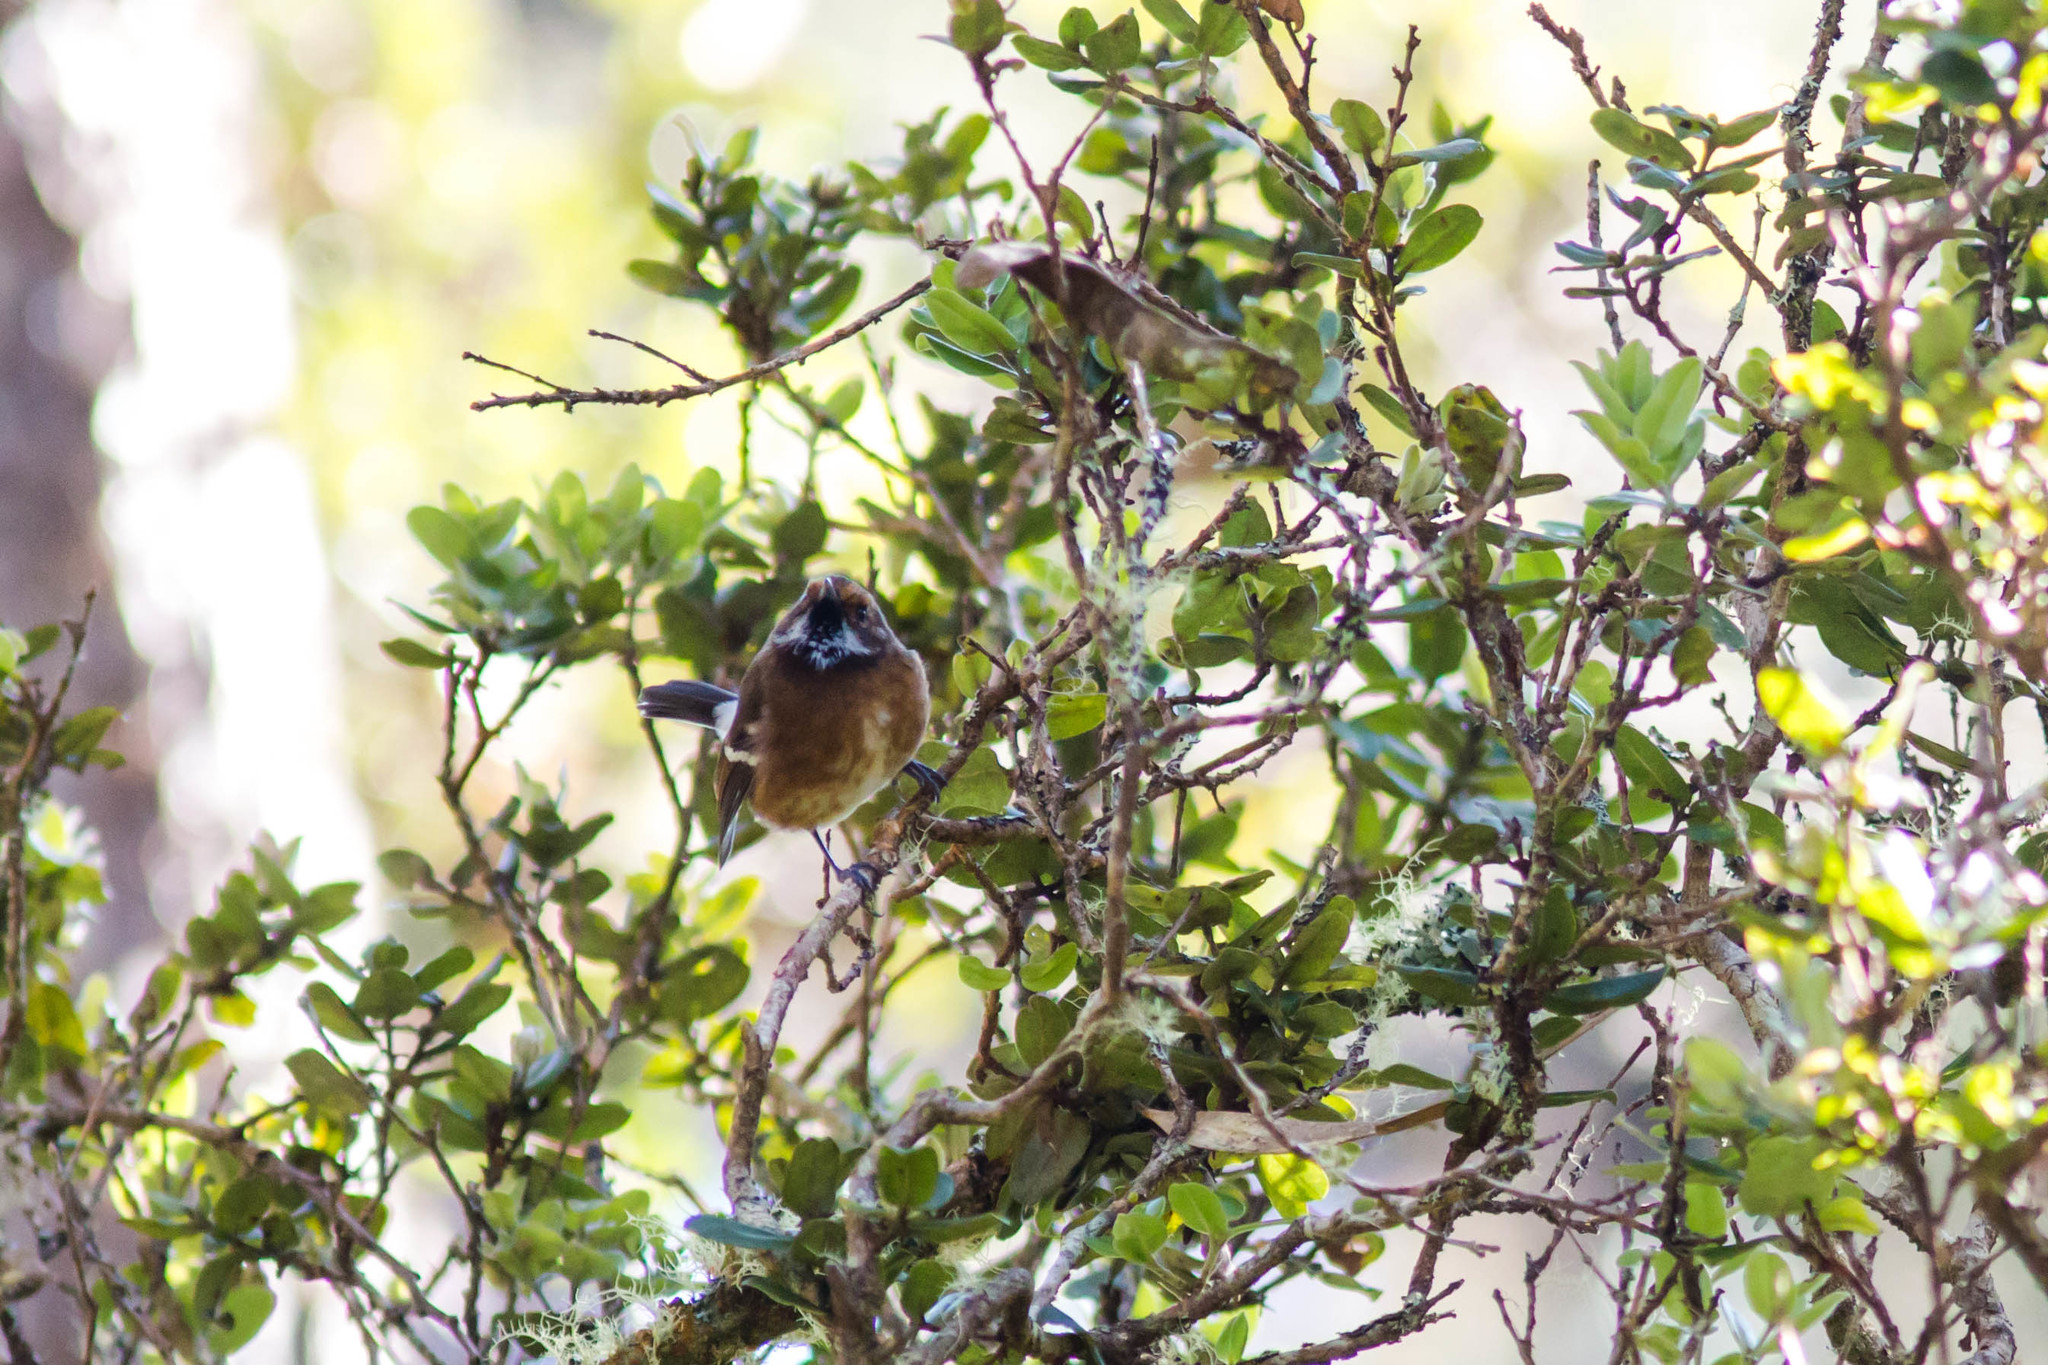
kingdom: Animalia
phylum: Chordata
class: Aves
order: Passeriformes
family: Monarchidae
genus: Chasiempis
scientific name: Chasiempis sandwichensis
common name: Hawaii elepaio
